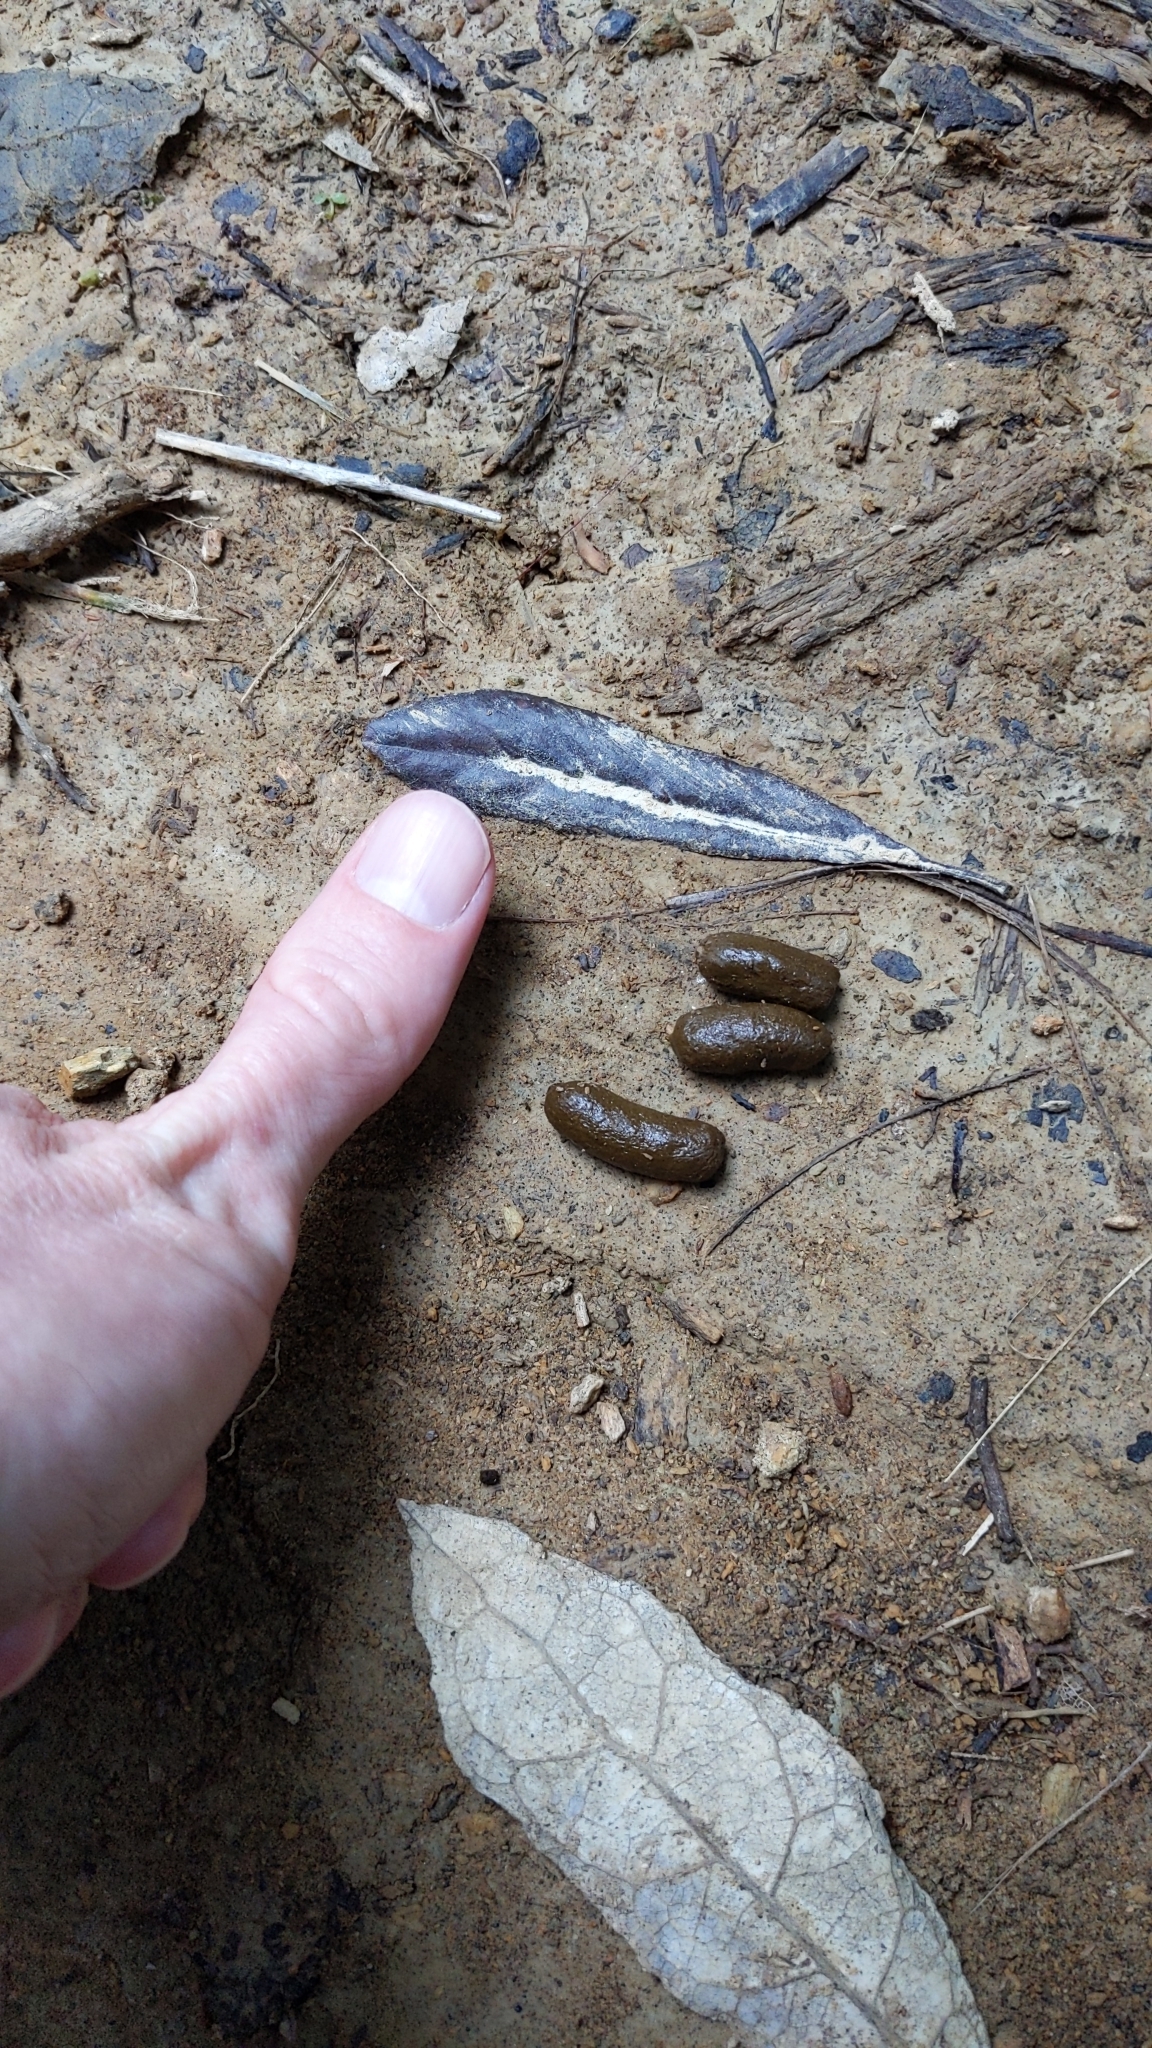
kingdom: Animalia
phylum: Chordata
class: Mammalia
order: Diprotodontia
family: Phalangeridae
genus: Trichosurus
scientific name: Trichosurus vulpecula
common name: Common brushtail
